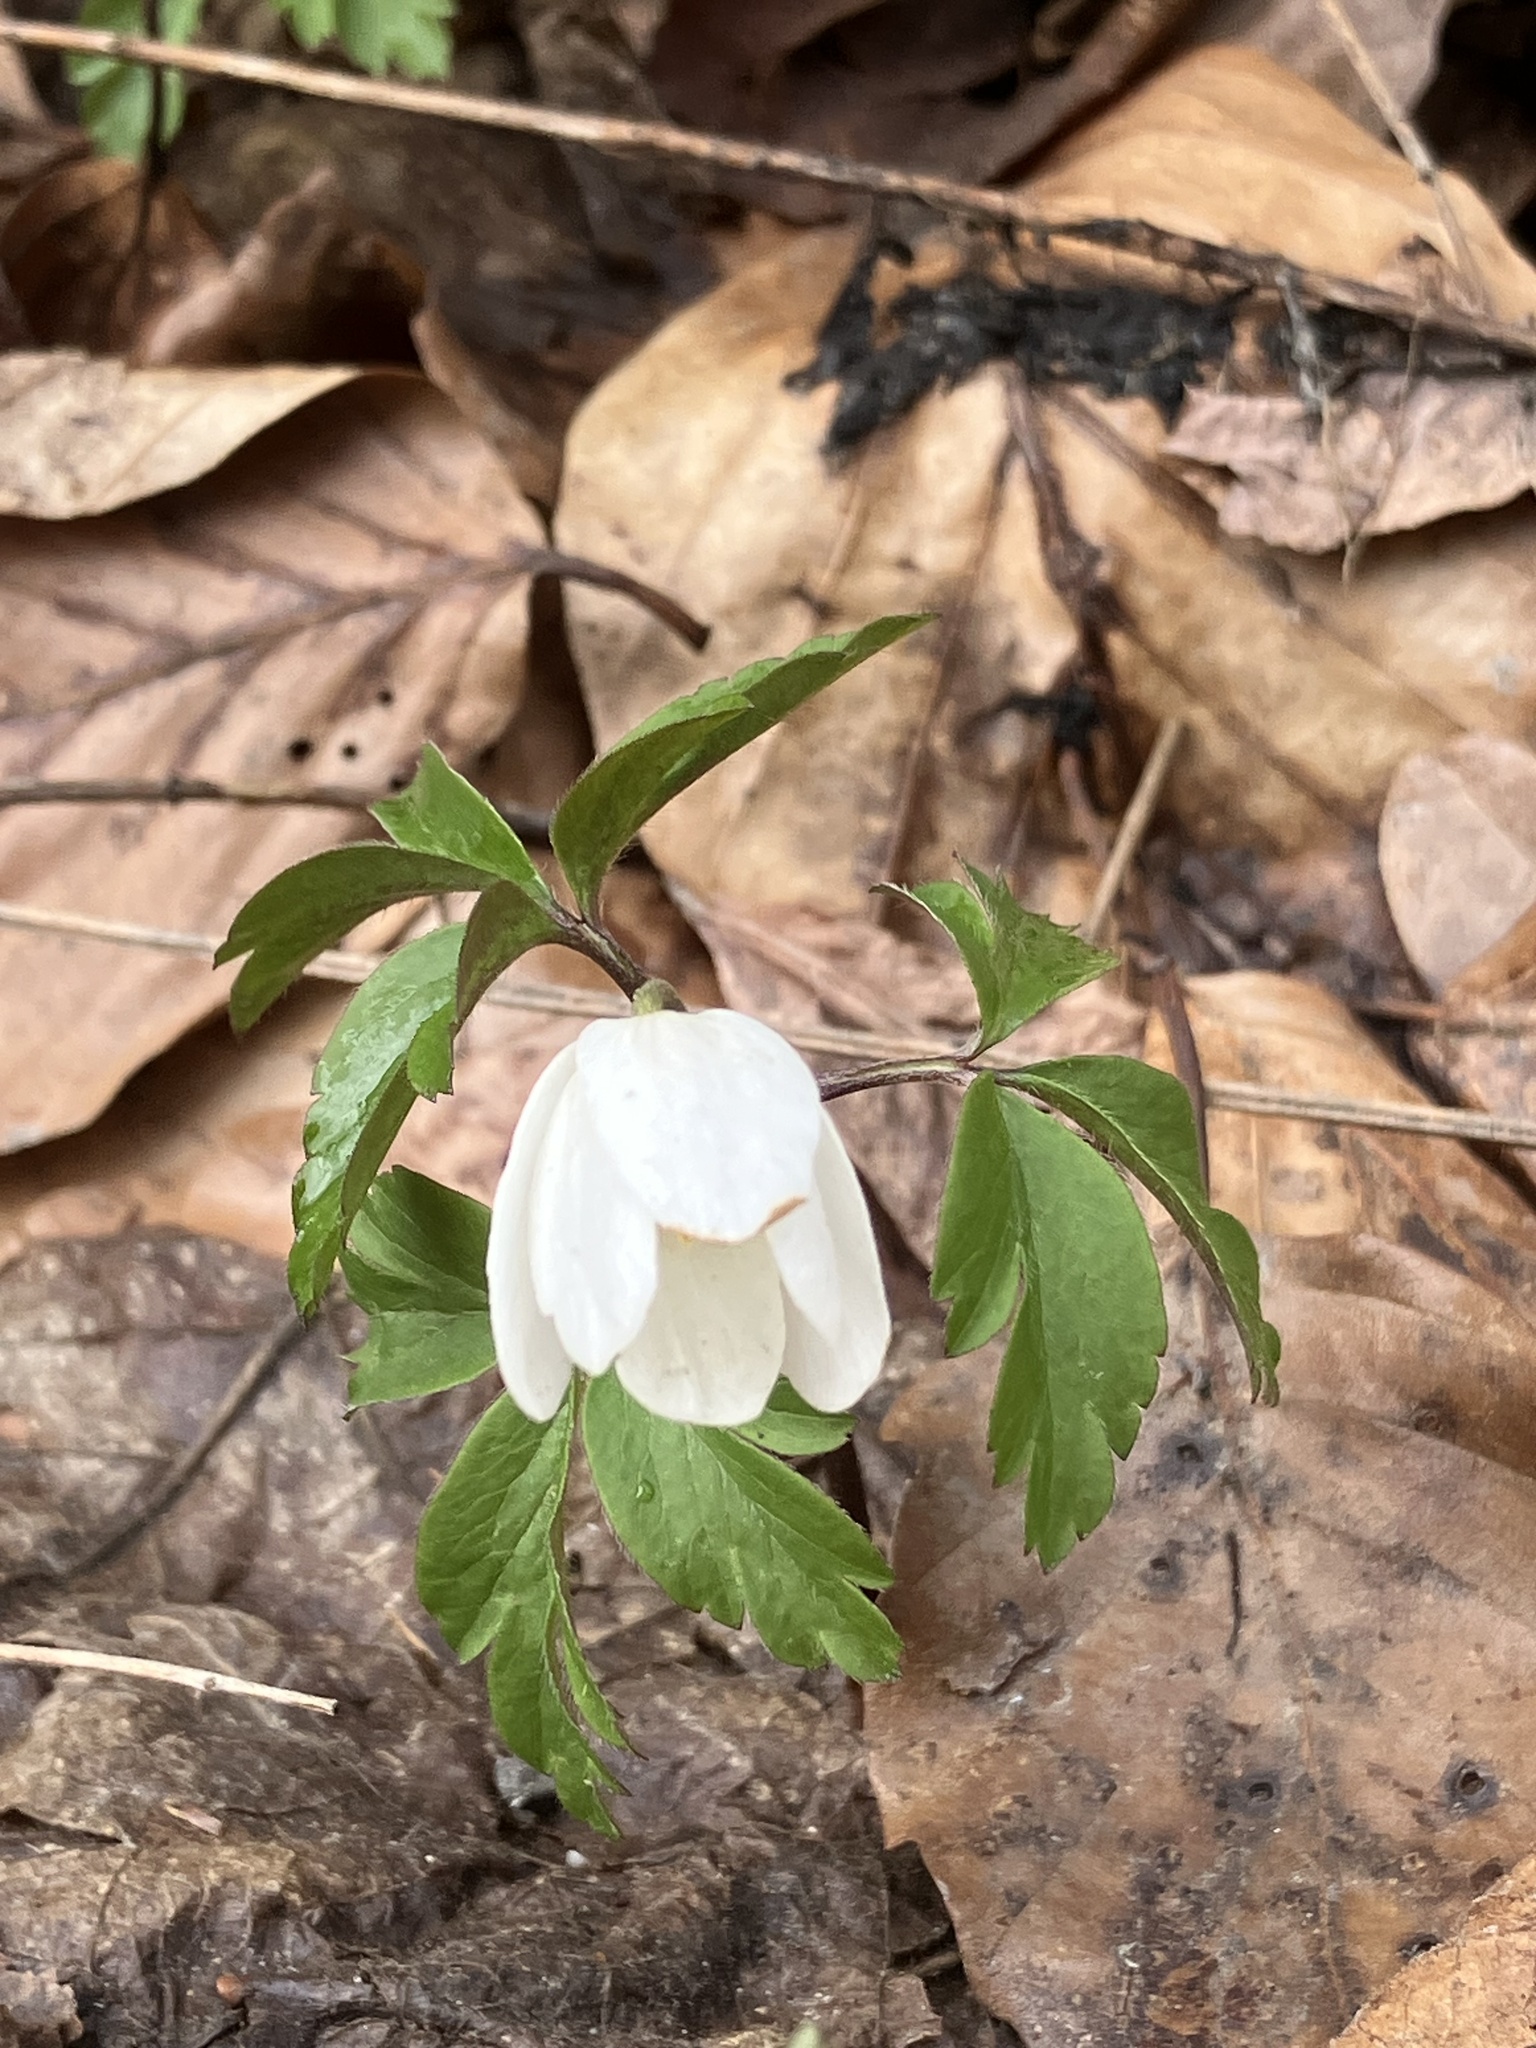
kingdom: Plantae
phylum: Tracheophyta
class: Magnoliopsida
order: Ranunculales
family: Ranunculaceae
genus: Anemone
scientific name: Anemone nemorosa
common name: Wood anemone
